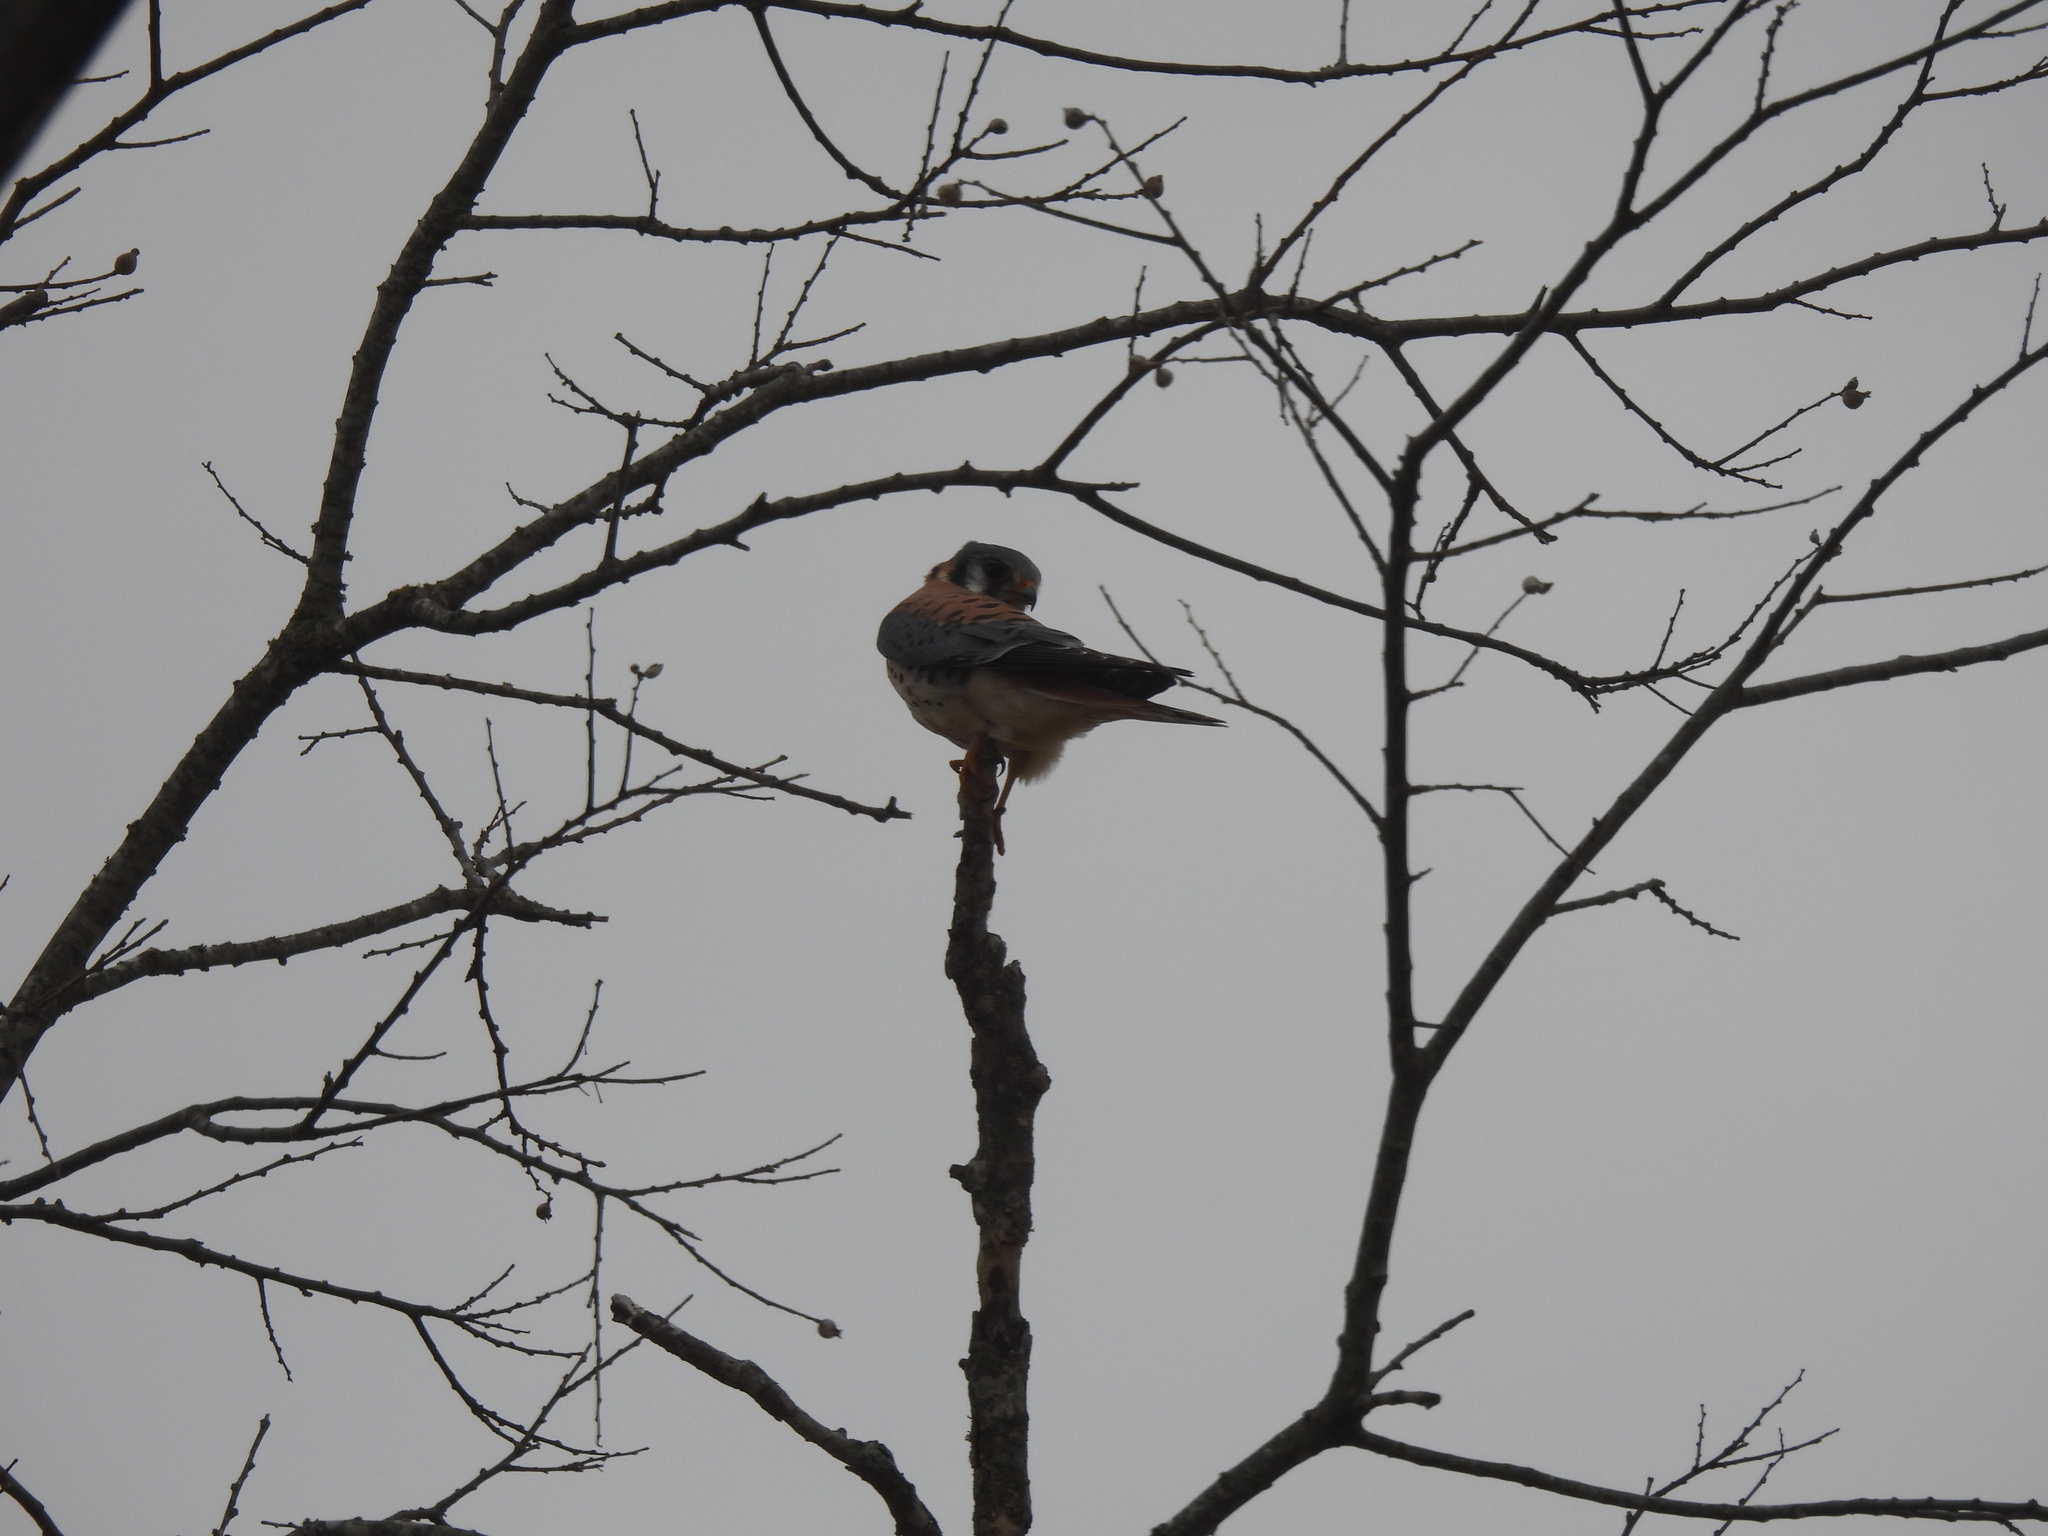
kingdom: Animalia
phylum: Chordata
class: Aves
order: Falconiformes
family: Falconidae
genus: Falco
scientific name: Falco sparverius
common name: American kestrel
